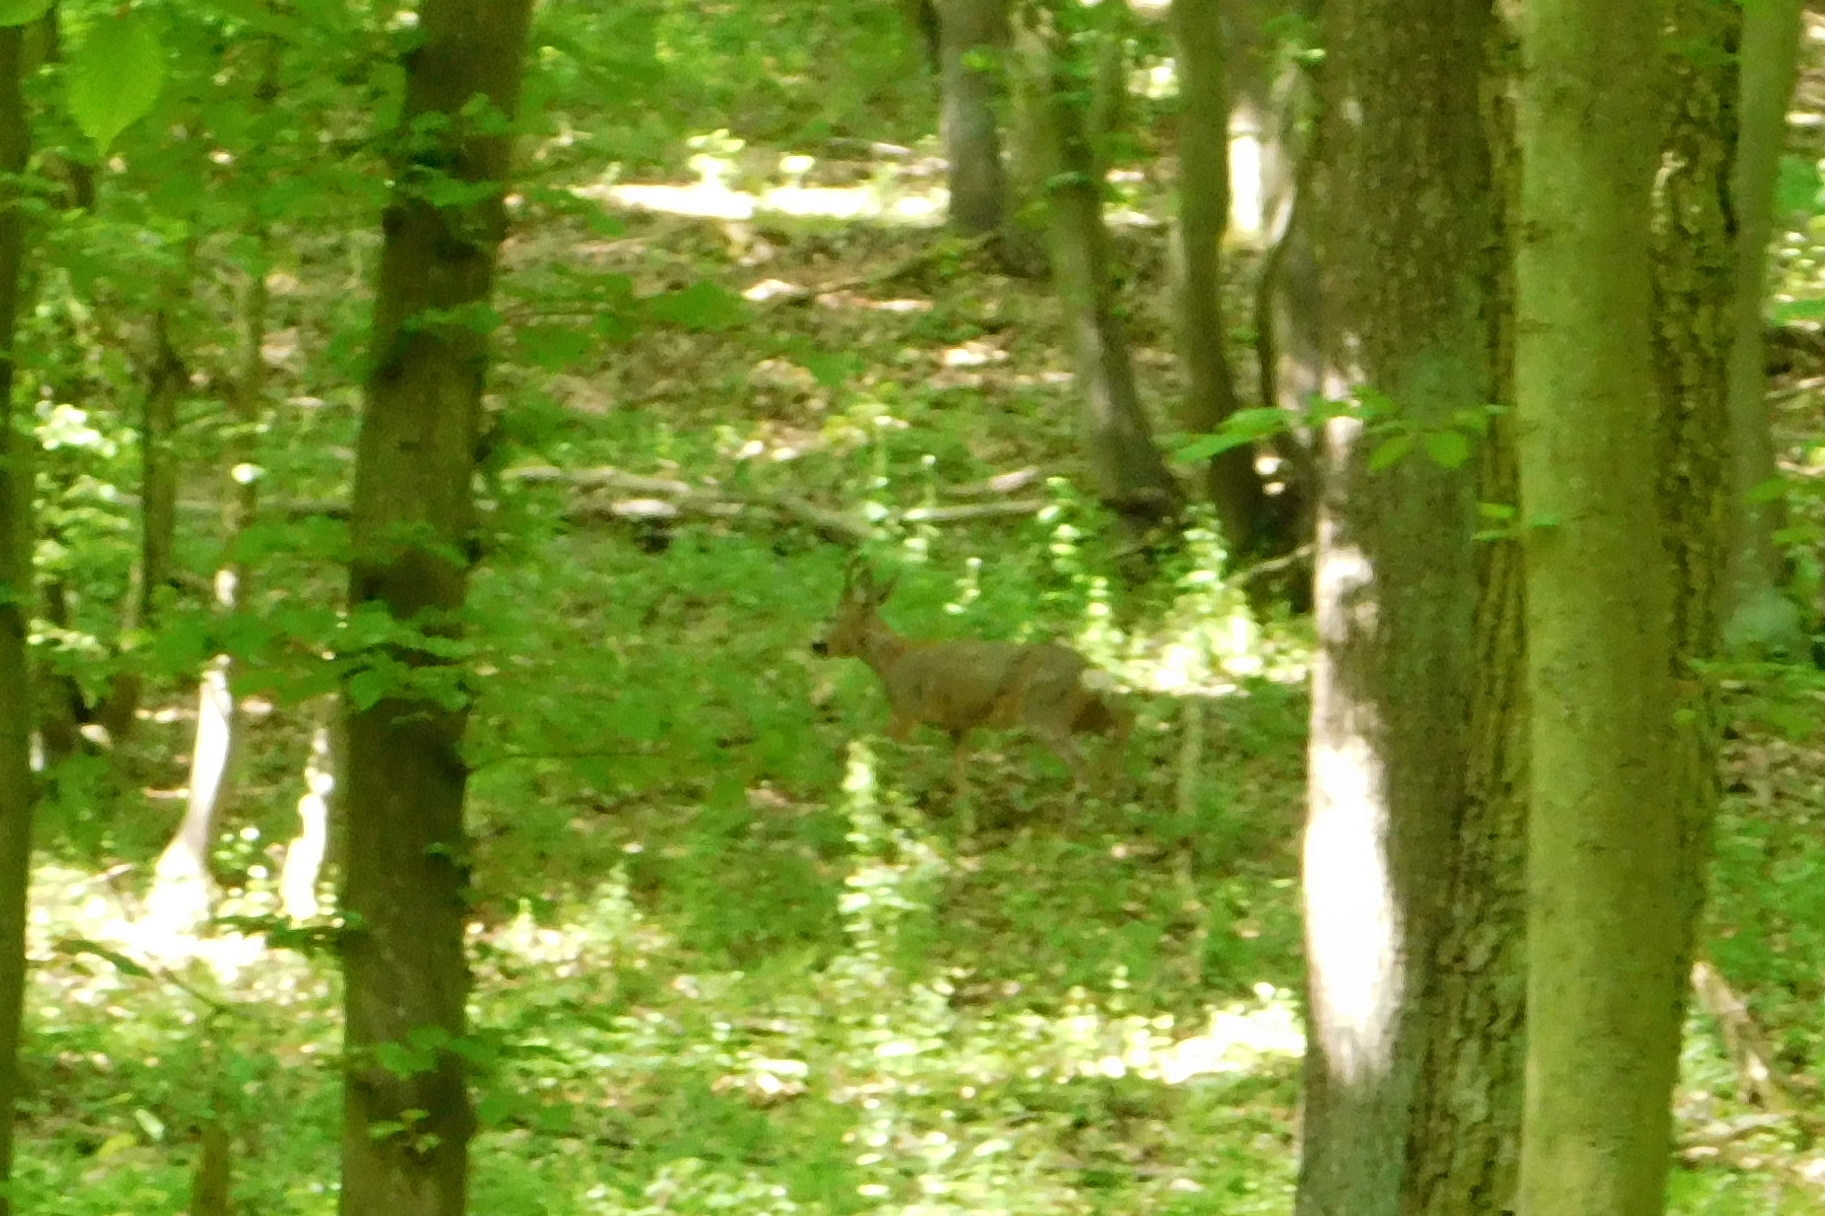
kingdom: Animalia
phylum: Chordata
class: Mammalia
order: Artiodactyla
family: Cervidae
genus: Capreolus
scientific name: Capreolus capreolus
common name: Western roe deer
